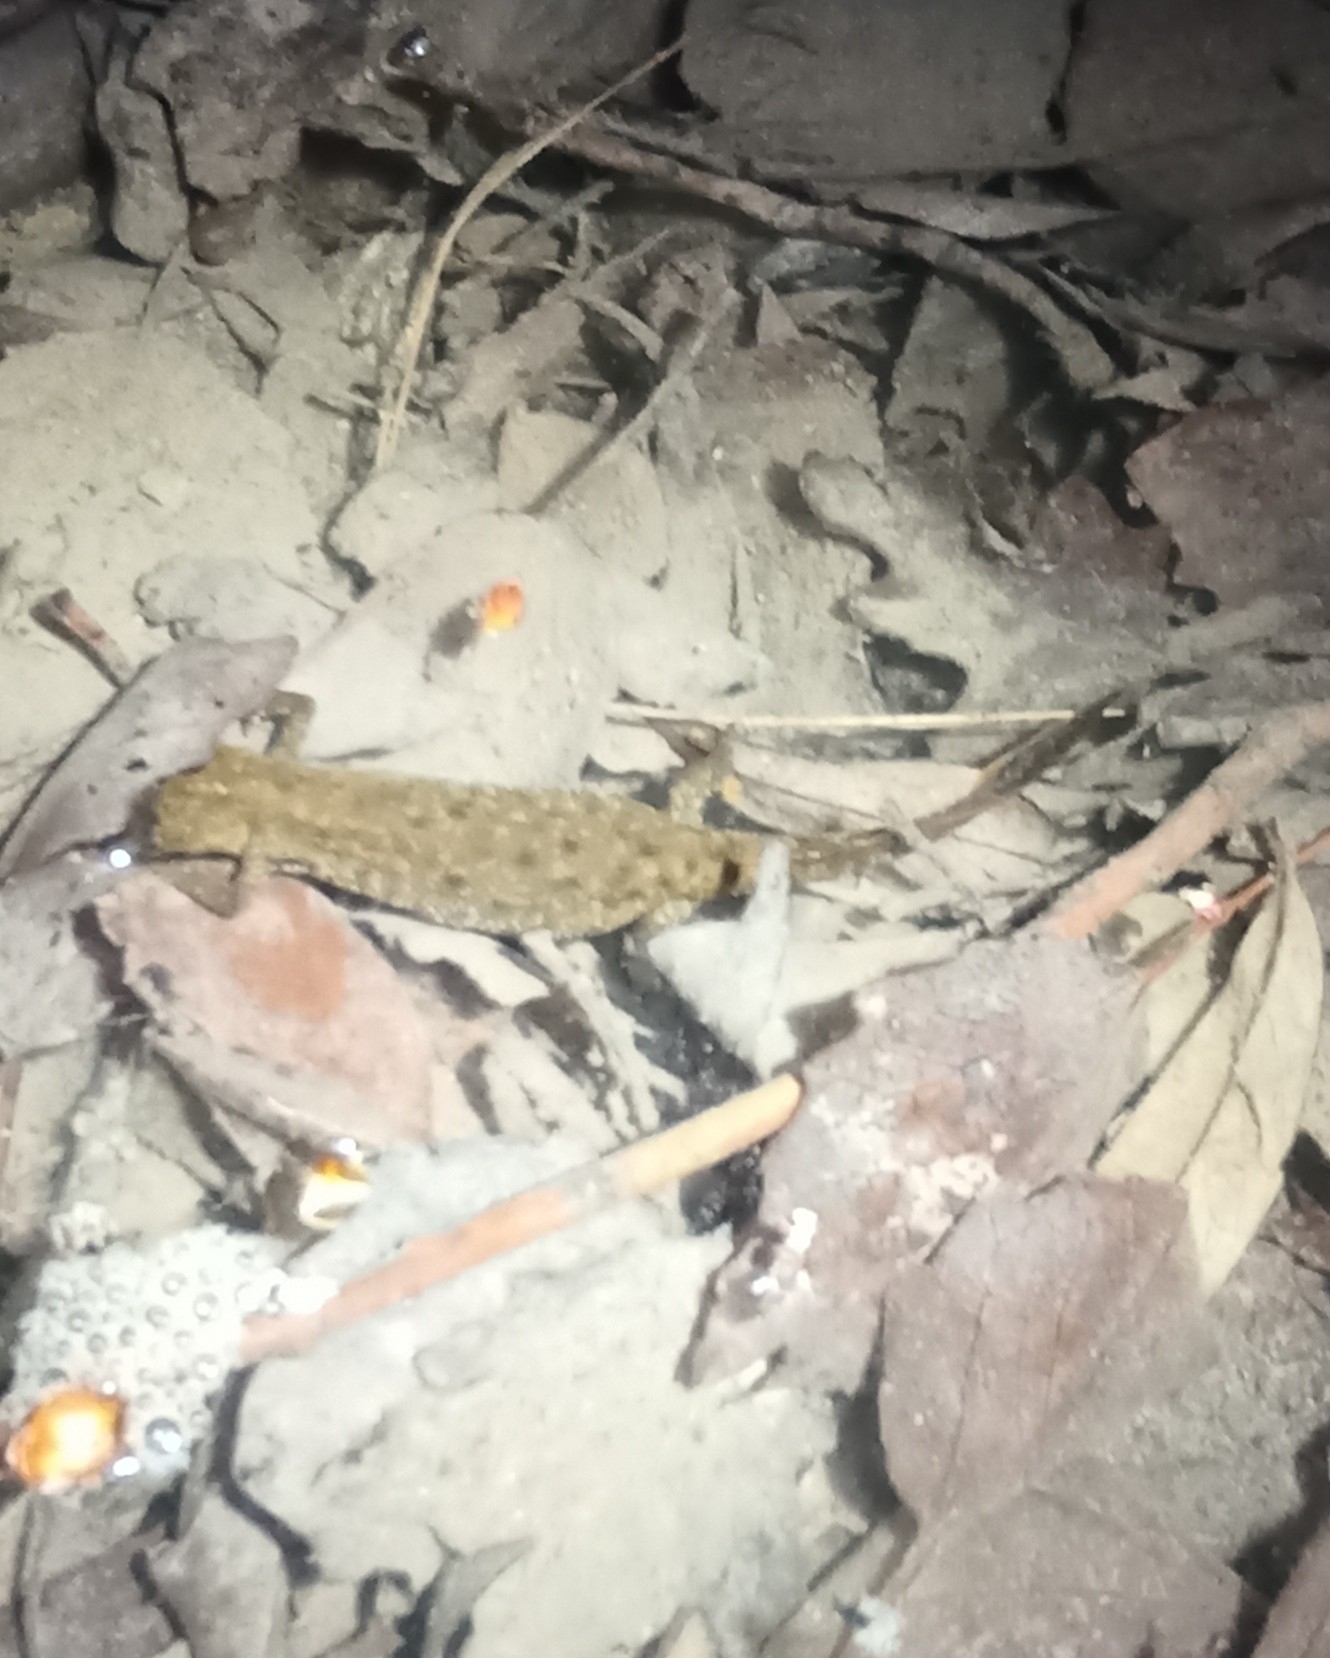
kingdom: Animalia
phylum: Chordata
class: Amphibia
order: Caudata
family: Salamandridae
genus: Triturus
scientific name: Triturus cristatus
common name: Crested newt
